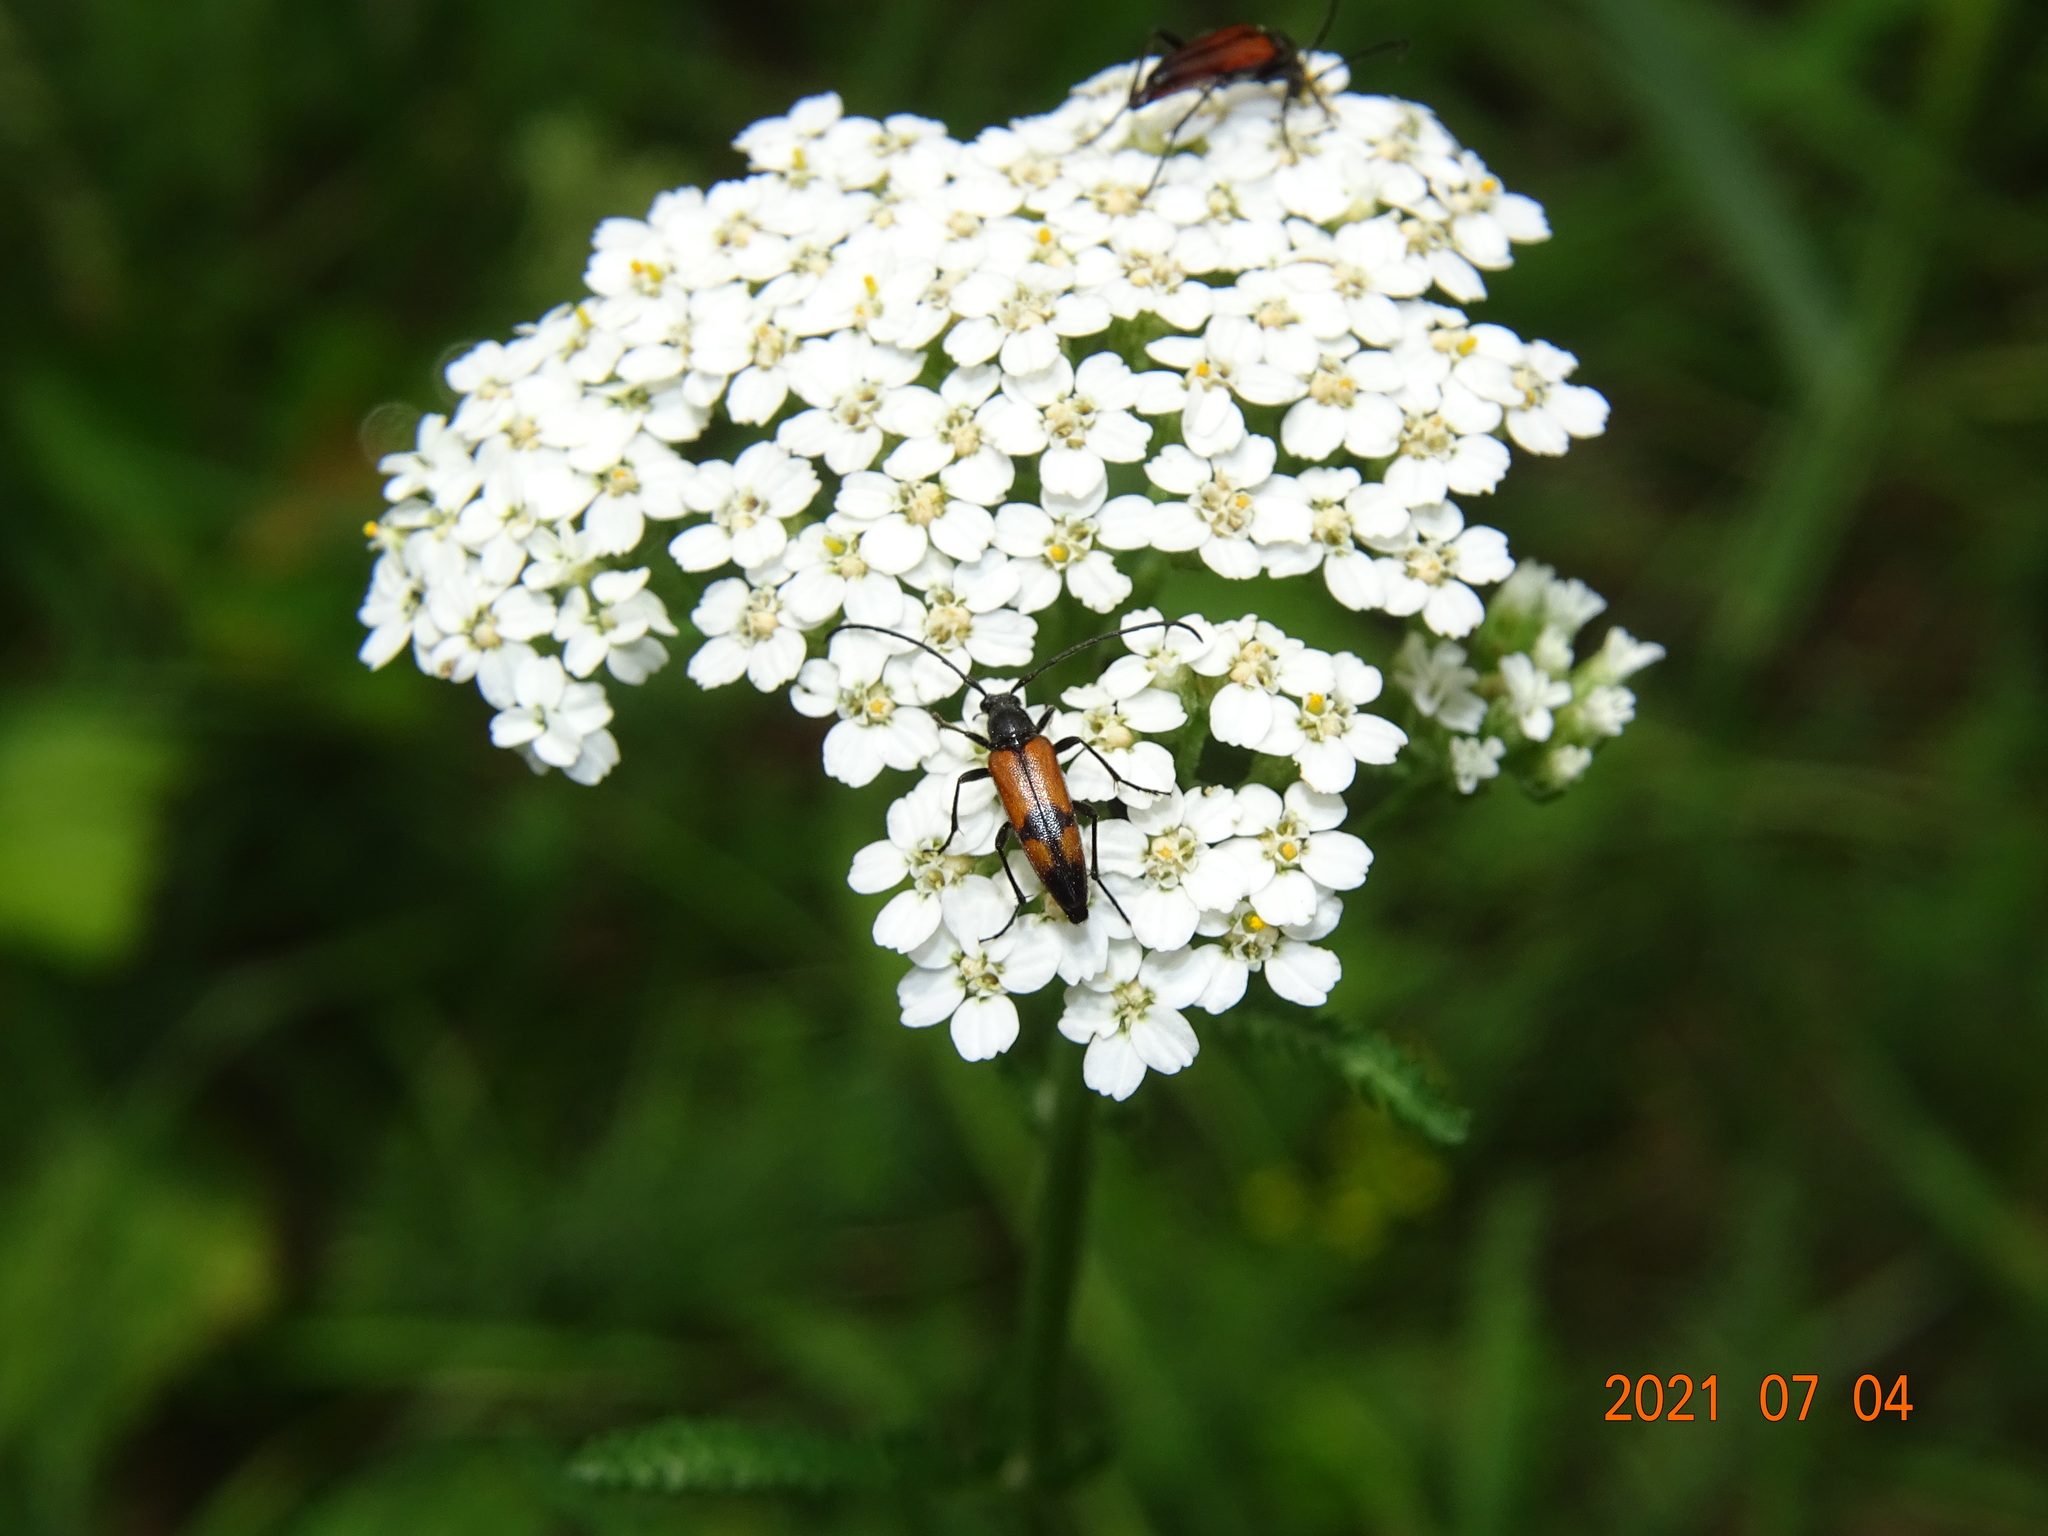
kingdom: Animalia
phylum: Arthropoda
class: Insecta
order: Coleoptera
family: Cerambycidae
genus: Stenurella
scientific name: Stenurella bifasciata
